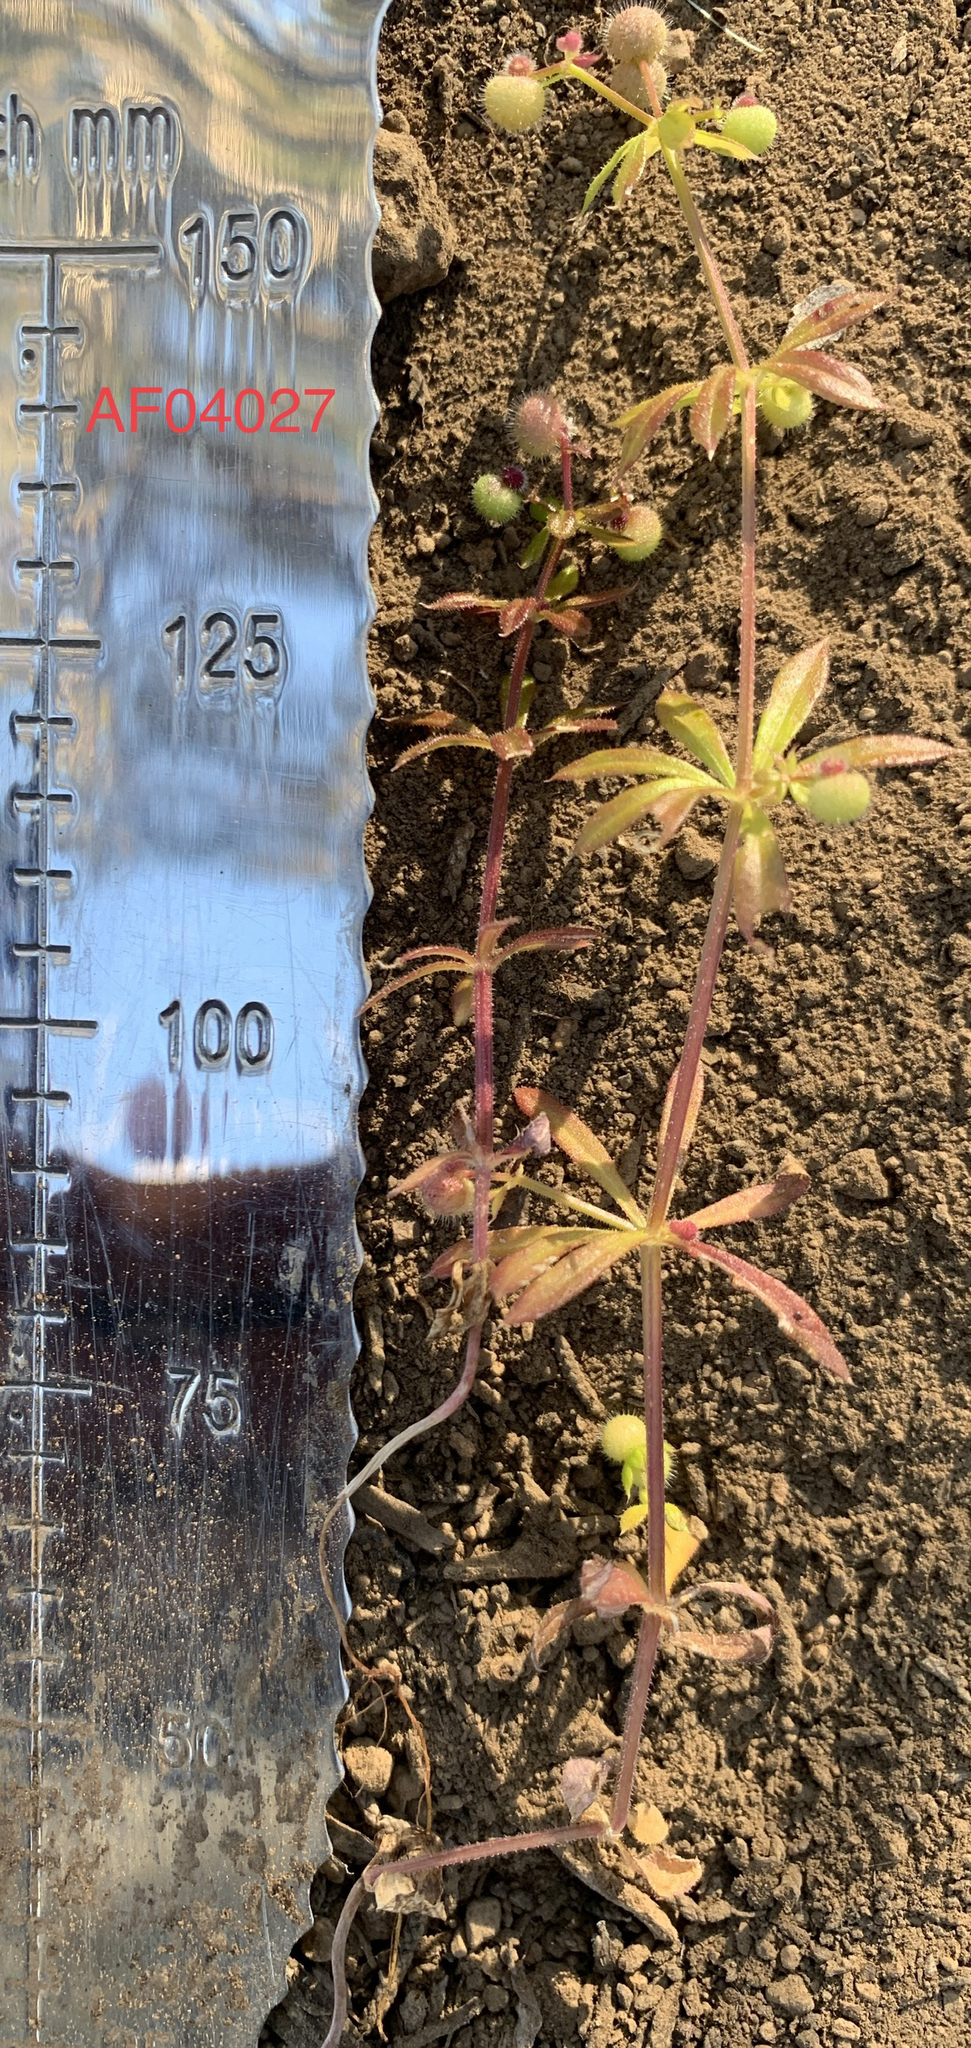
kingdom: Plantae
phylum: Tracheophyta
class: Magnoliopsida
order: Gentianales
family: Rubiaceae
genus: Galium
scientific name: Galium aparine
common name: Cleavers
